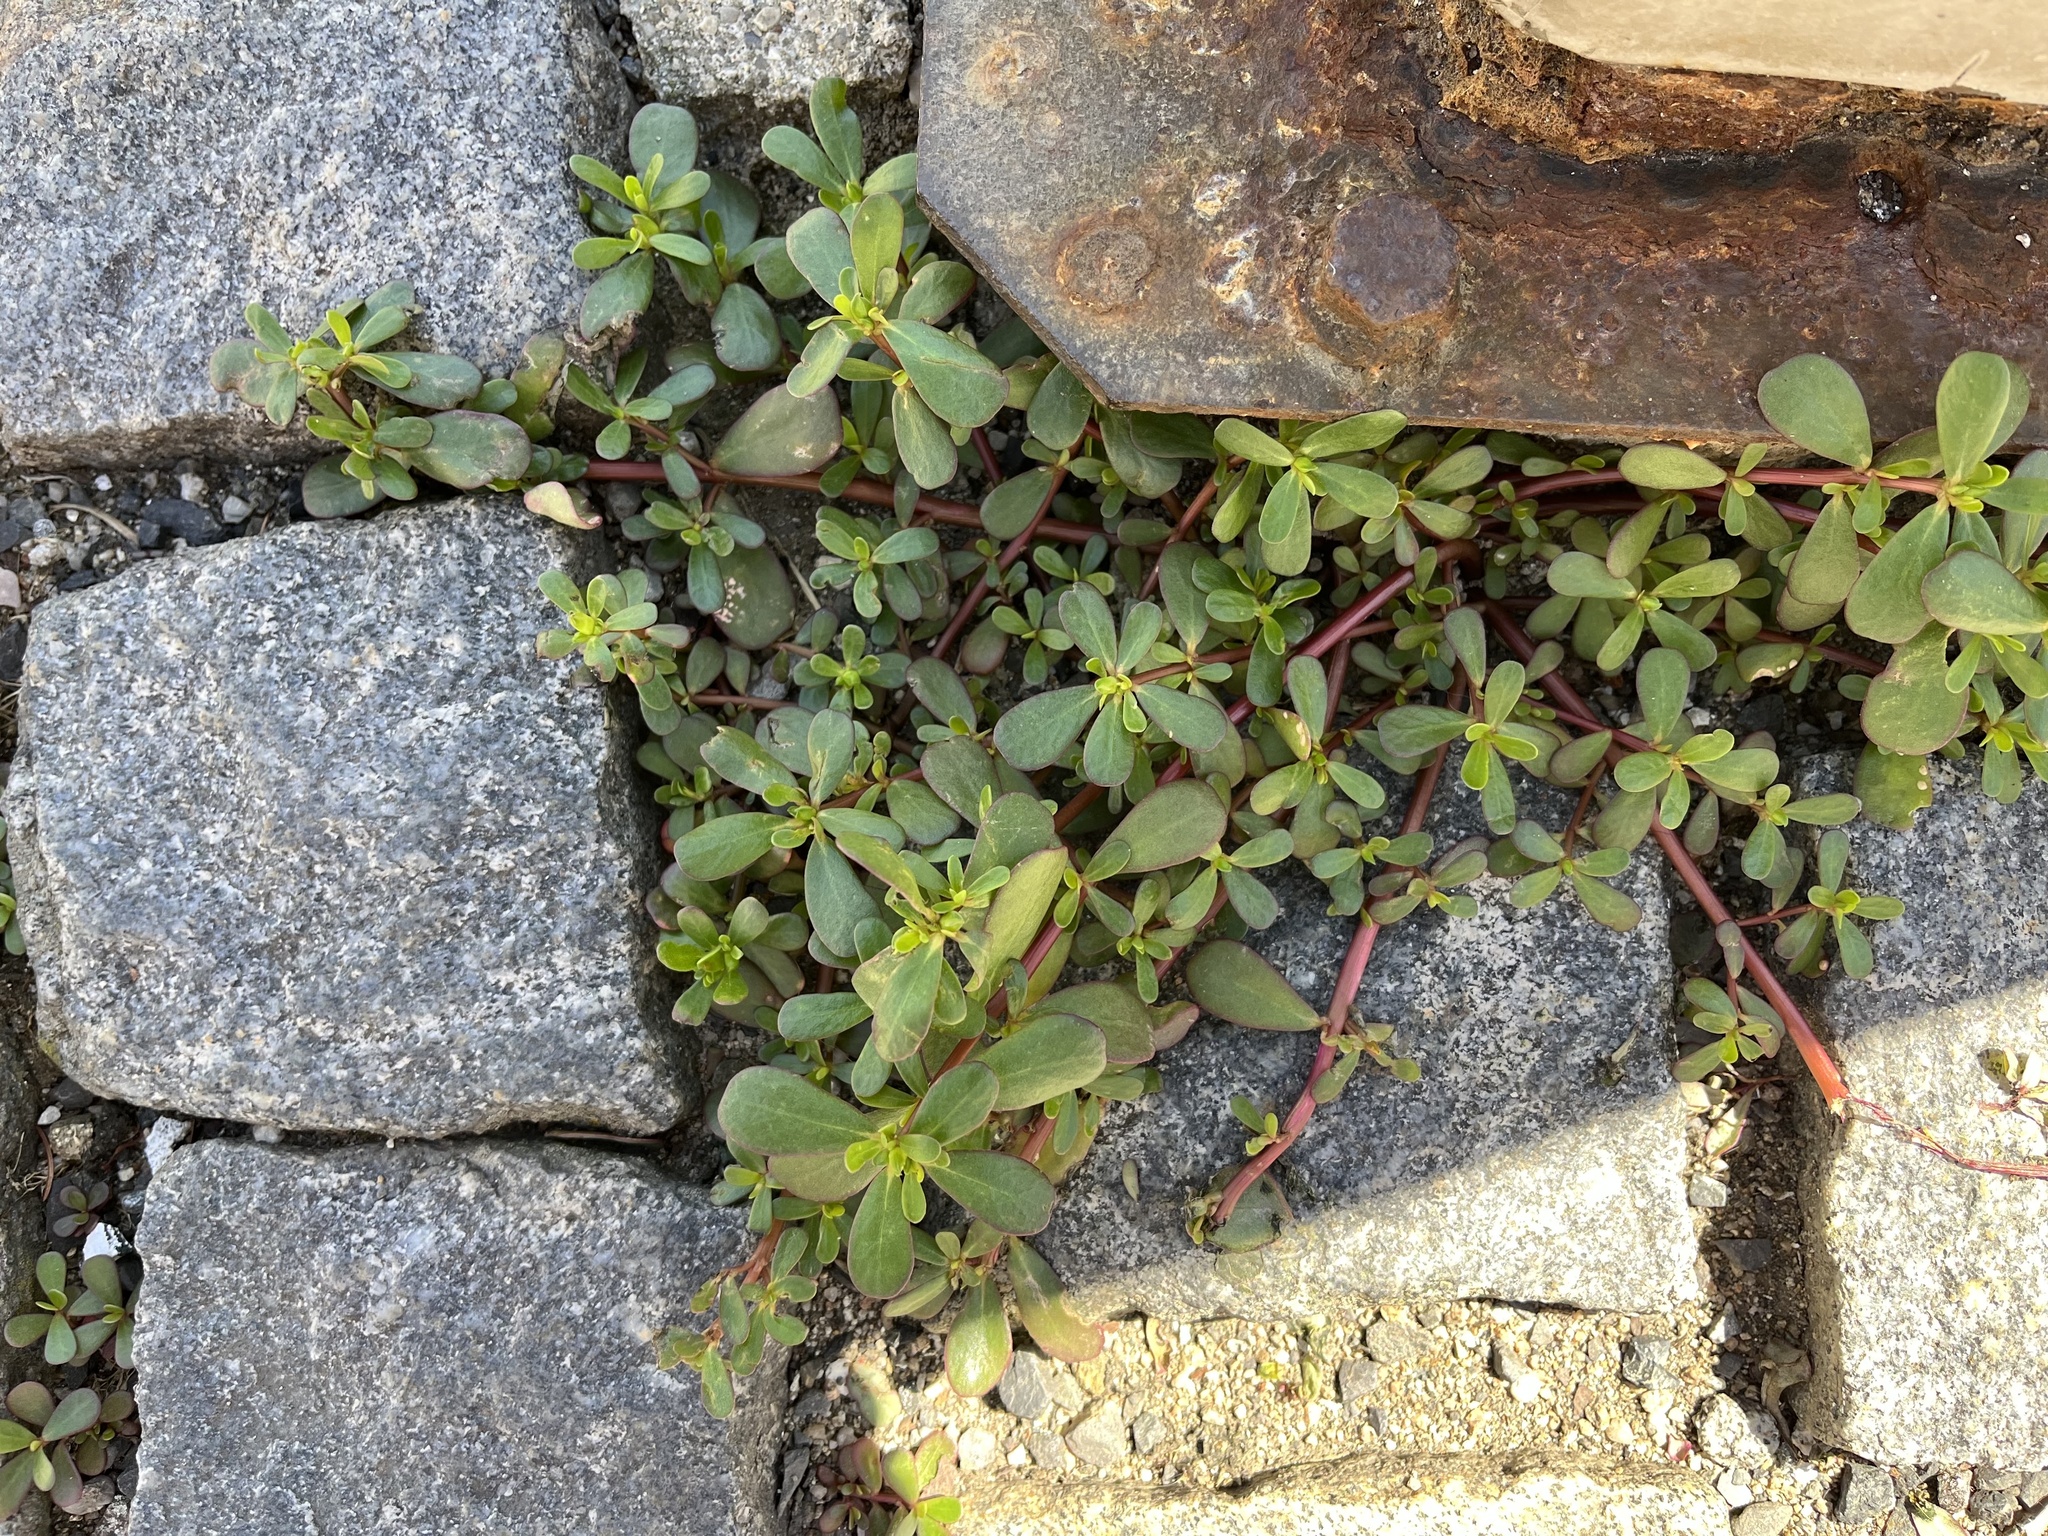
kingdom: Plantae
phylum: Tracheophyta
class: Magnoliopsida
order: Caryophyllales
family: Portulacaceae
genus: Portulaca
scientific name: Portulaca oleracea
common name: Common purslane
